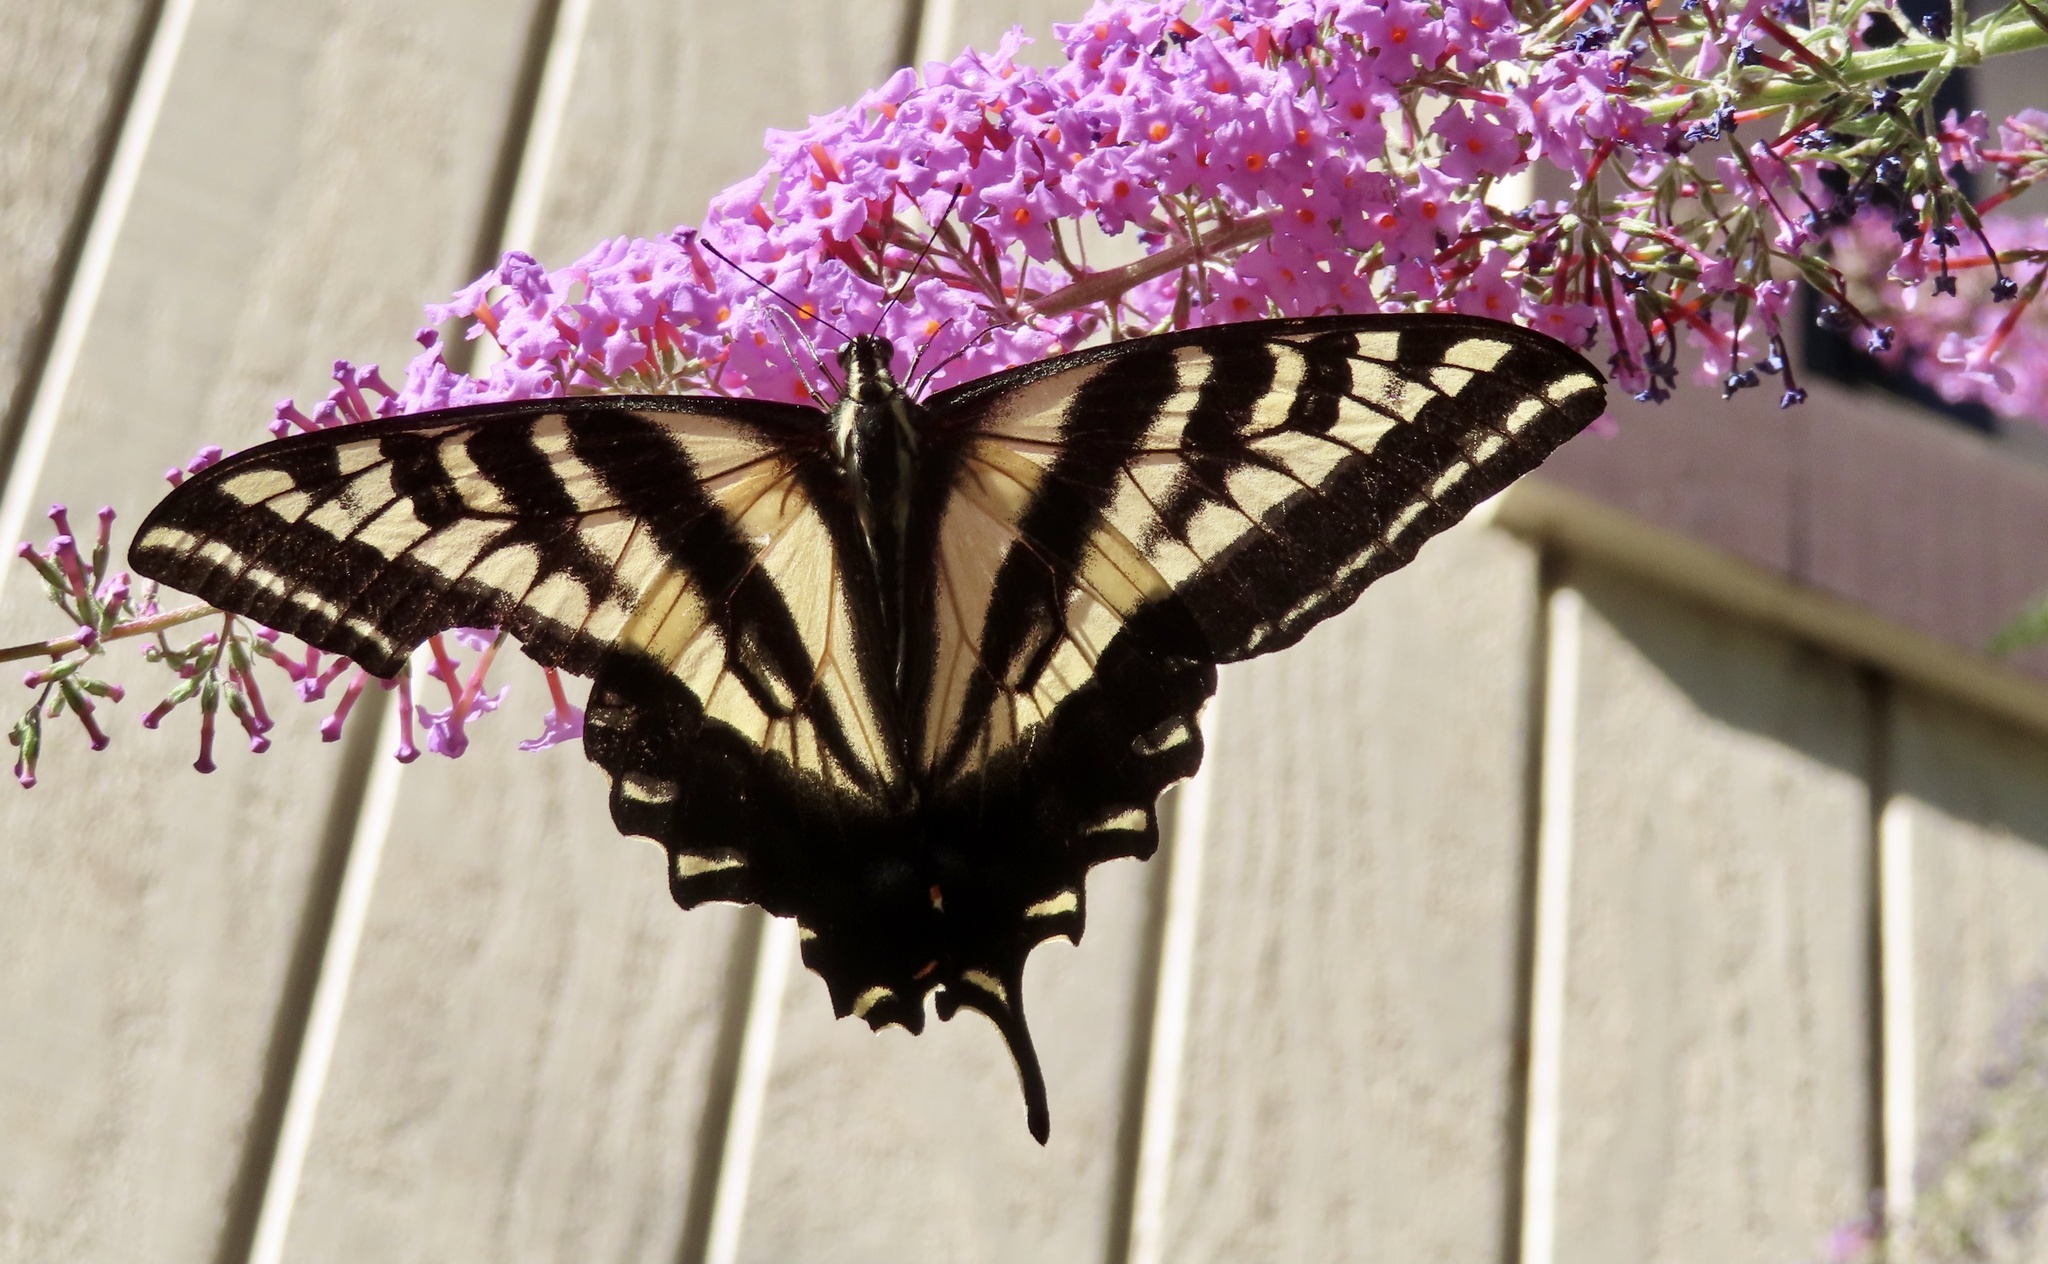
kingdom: Animalia
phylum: Arthropoda
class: Insecta
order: Lepidoptera
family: Papilionidae
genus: Papilio
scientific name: Papilio eurymedon
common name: Pale tiger swallowtail
